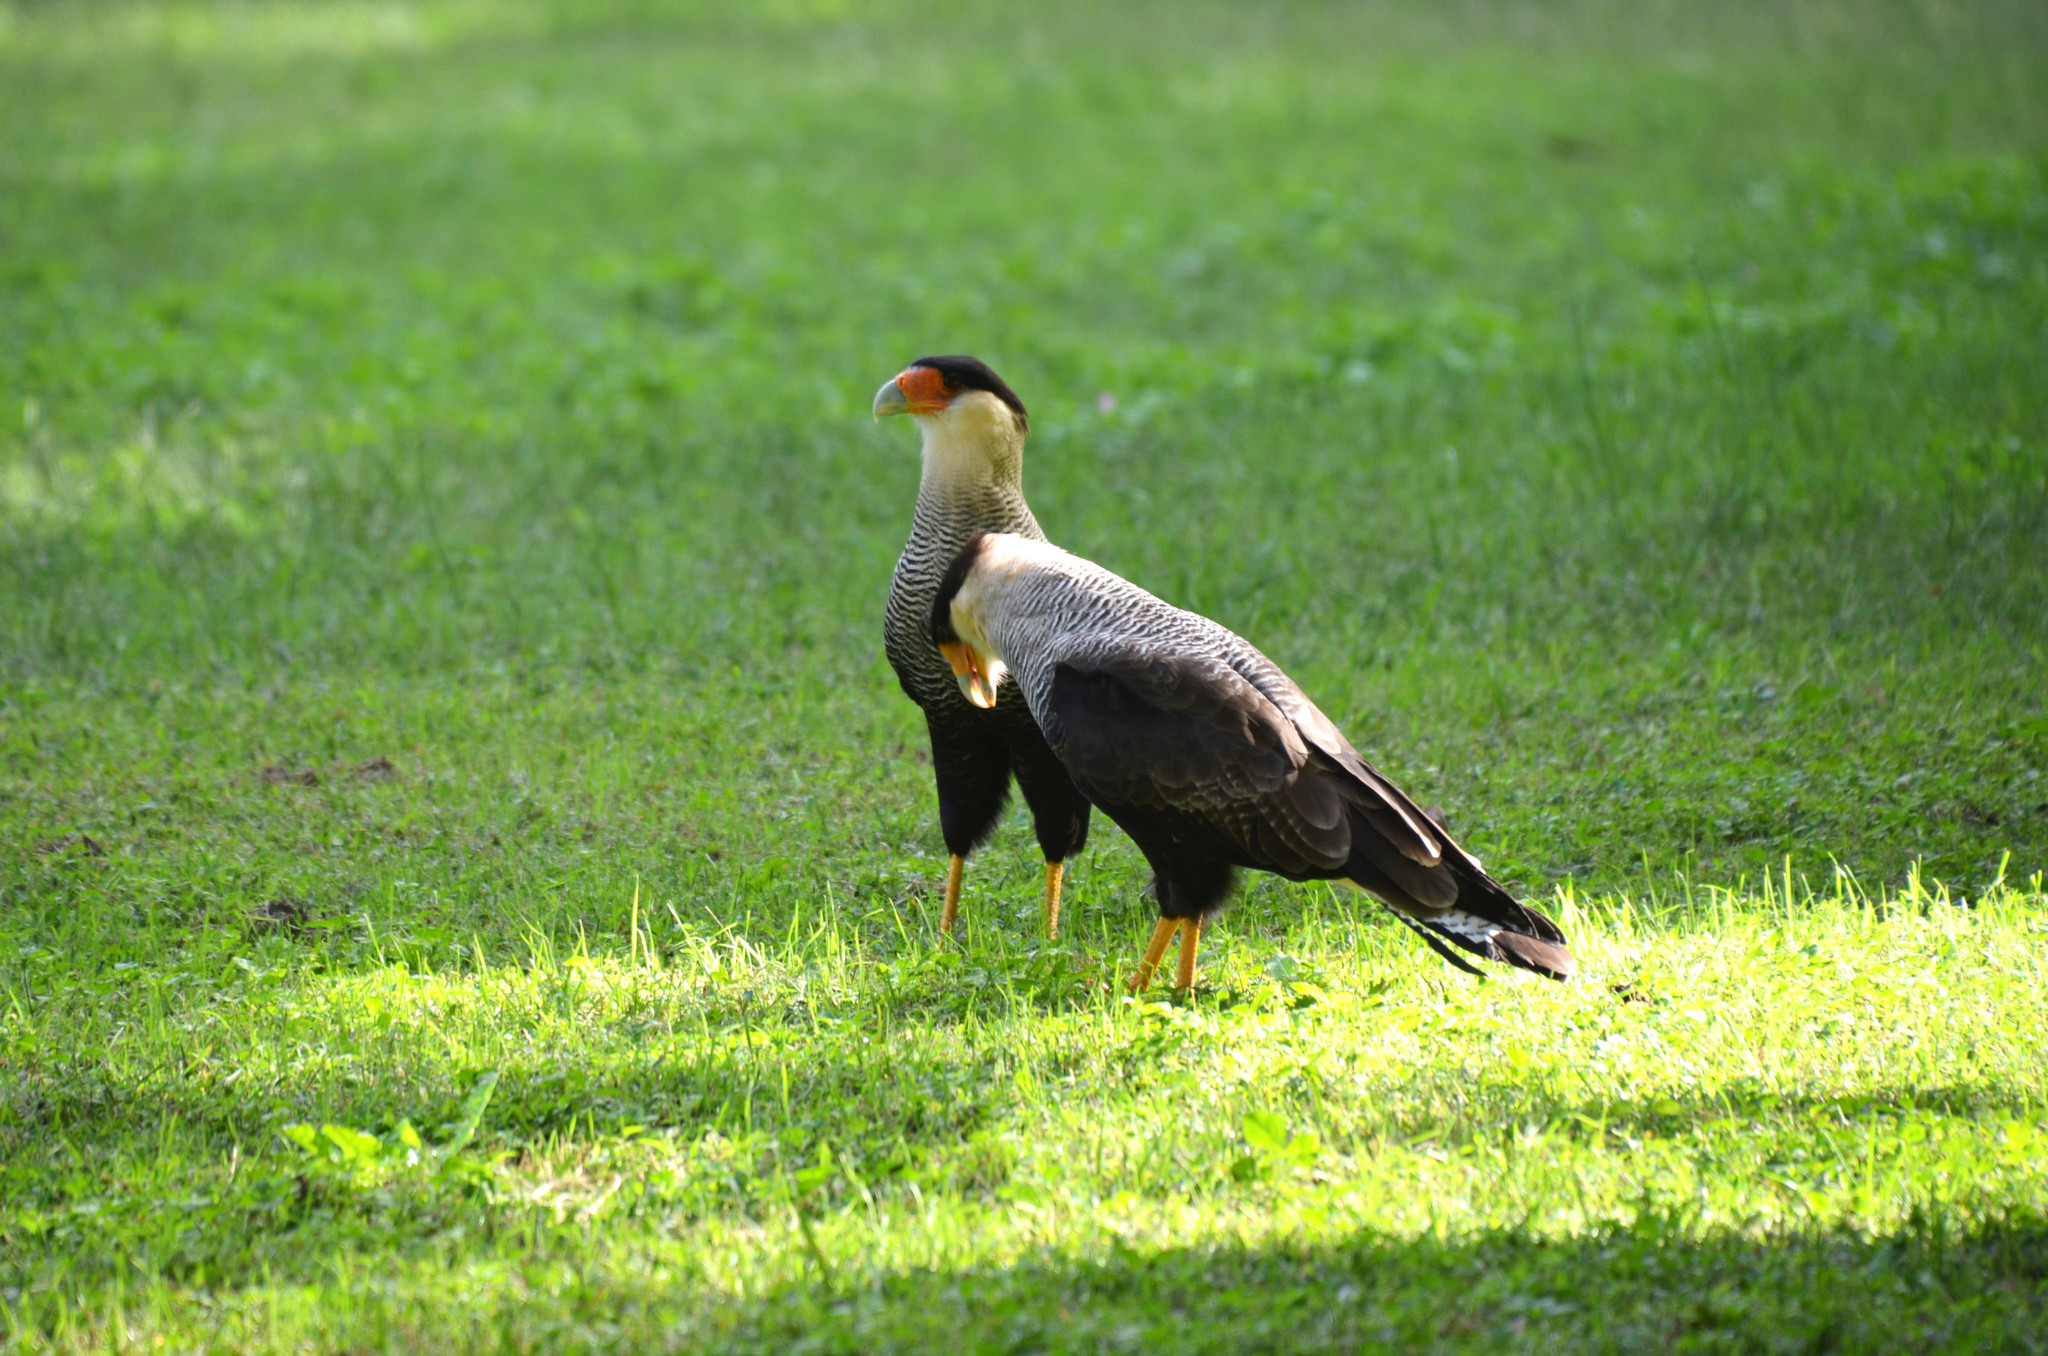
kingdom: Animalia
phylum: Chordata
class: Aves
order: Falconiformes
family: Falconidae
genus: Caracara
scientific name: Caracara plancus
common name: Southern caracara
